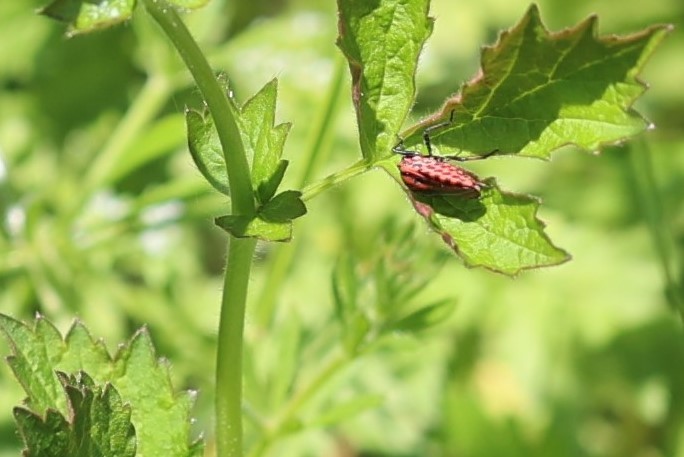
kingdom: Animalia
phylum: Arthropoda
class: Insecta
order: Hemiptera
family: Pentatomidae
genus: Graphosoma
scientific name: Graphosoma italicum
